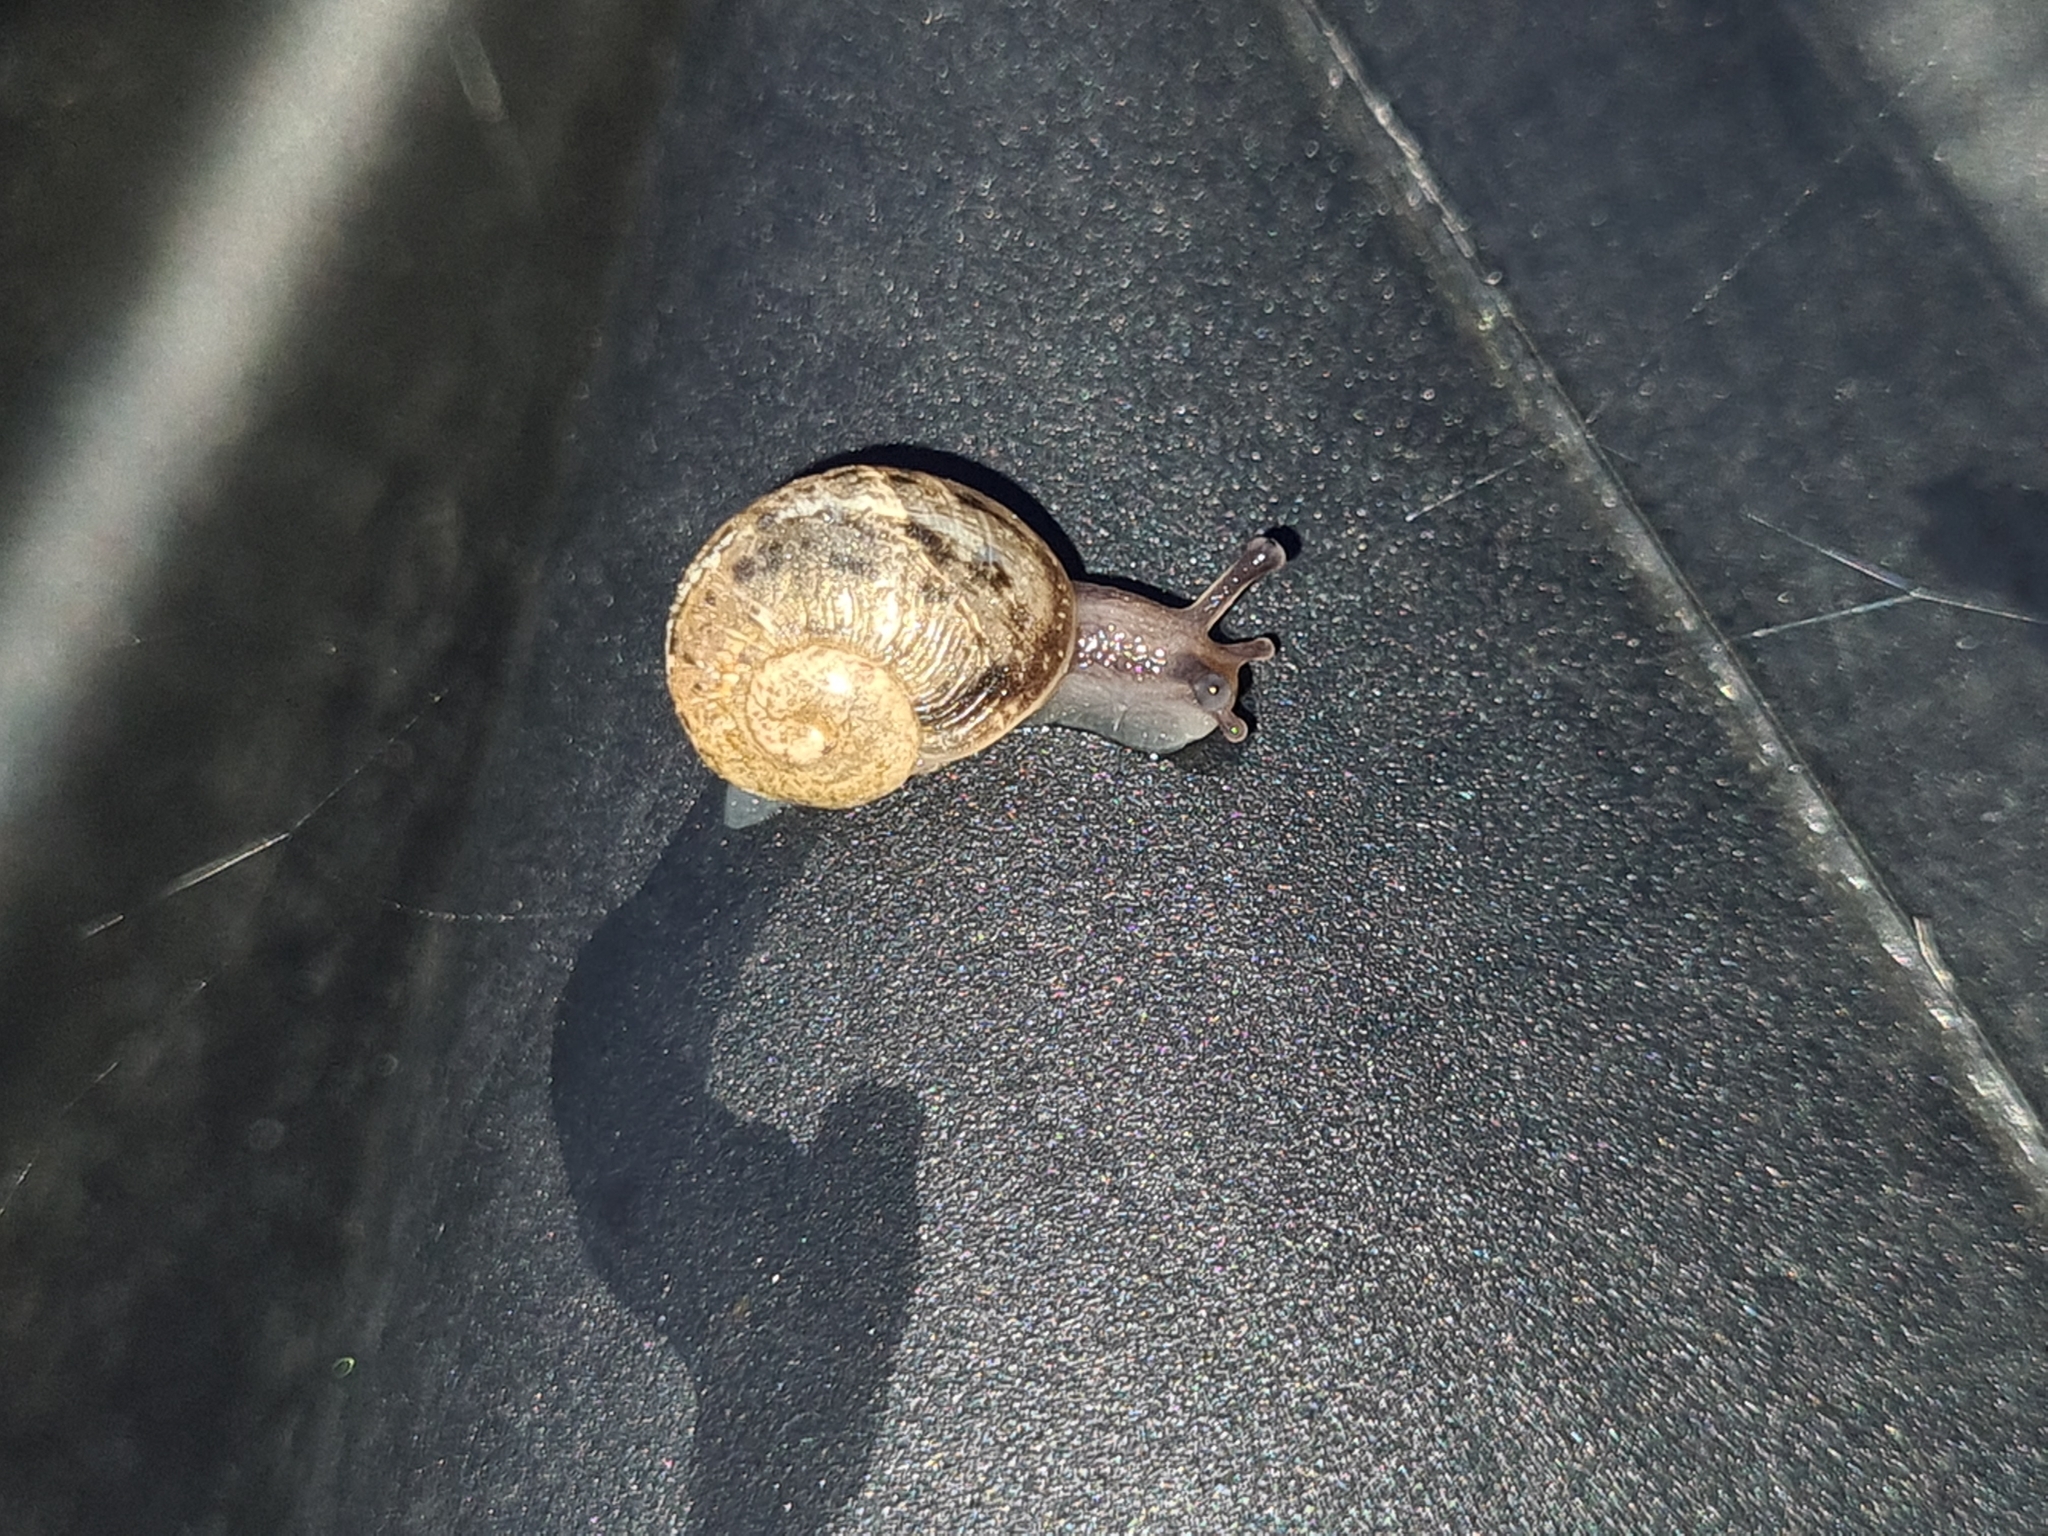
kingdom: Animalia
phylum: Mollusca
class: Gastropoda
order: Stylommatophora
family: Helicidae
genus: Cornu
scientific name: Cornu aspersum
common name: Brown garden snail
